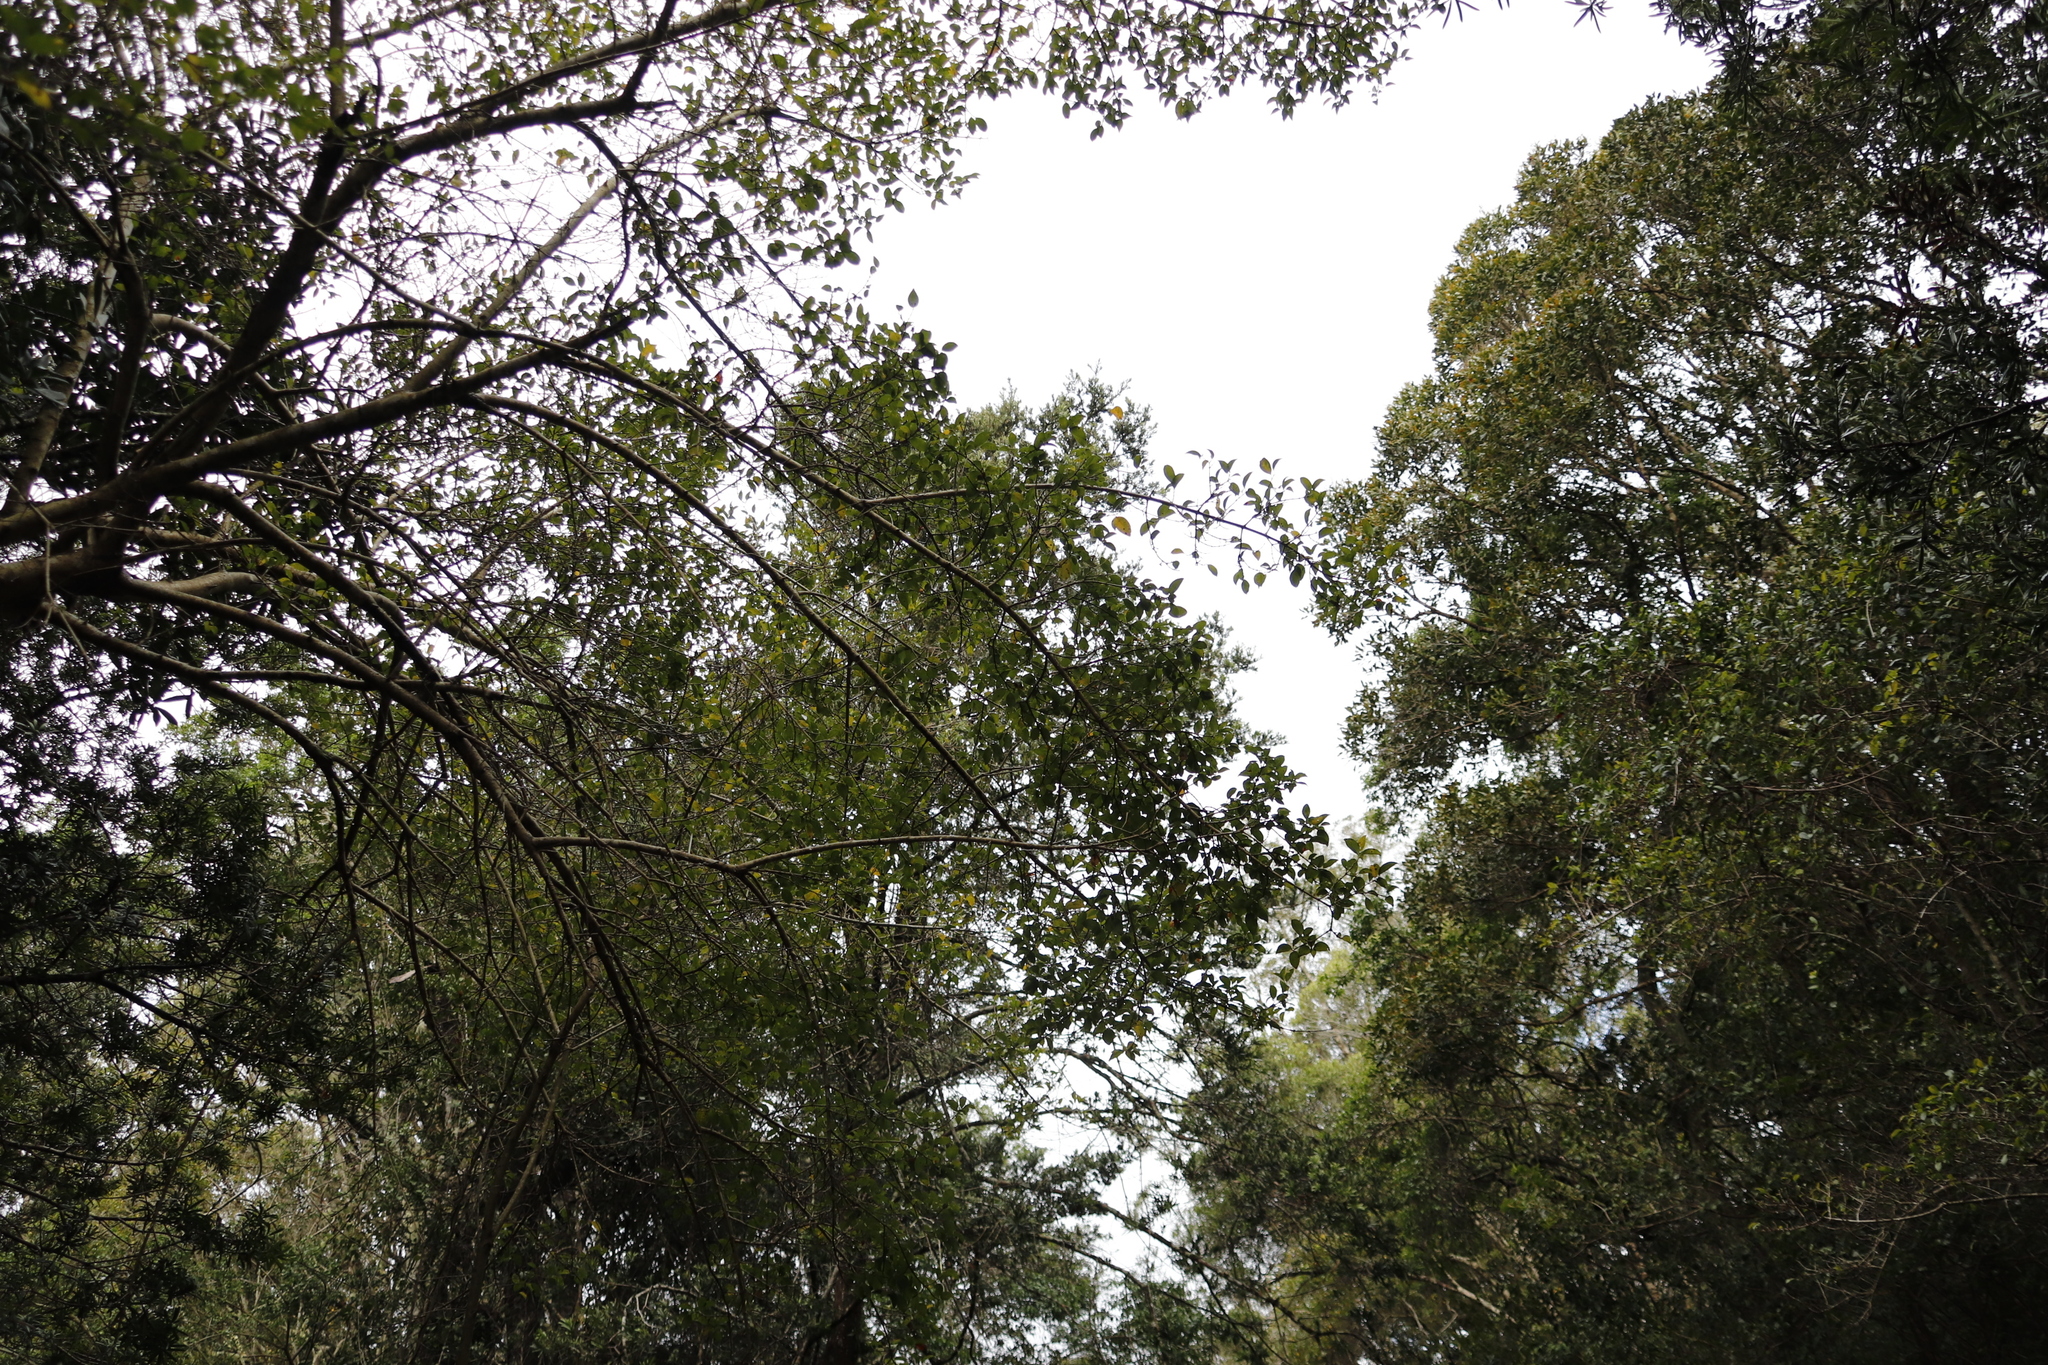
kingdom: Plantae
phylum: Tracheophyta
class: Magnoliopsida
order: Gentianales
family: Rubiaceae
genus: Canthium
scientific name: Canthium inerme
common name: Unarmed turkey-berry
